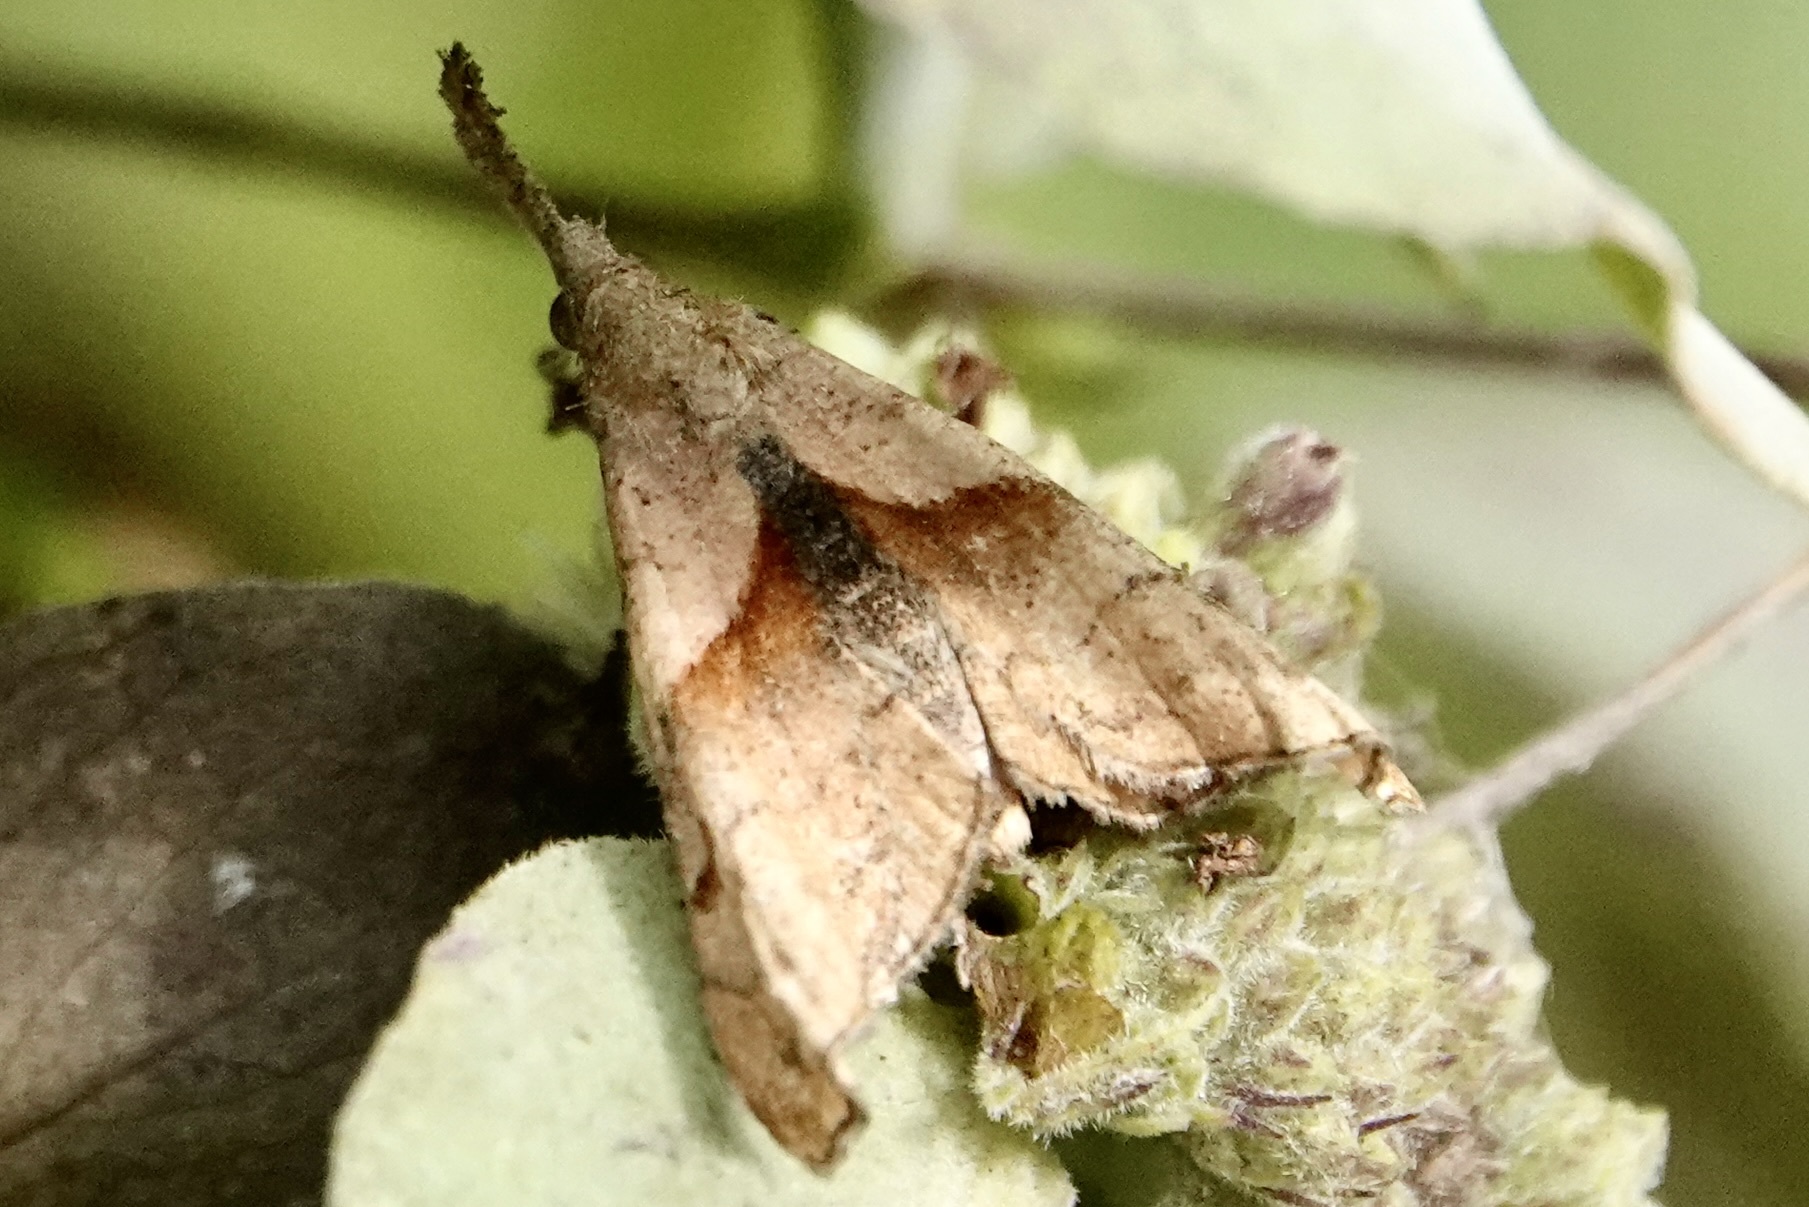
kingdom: Animalia
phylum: Arthropoda
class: Insecta
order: Lepidoptera
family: Erebidae
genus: Palthis
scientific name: Palthis angulalis
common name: Dark-spotted palthis moth
